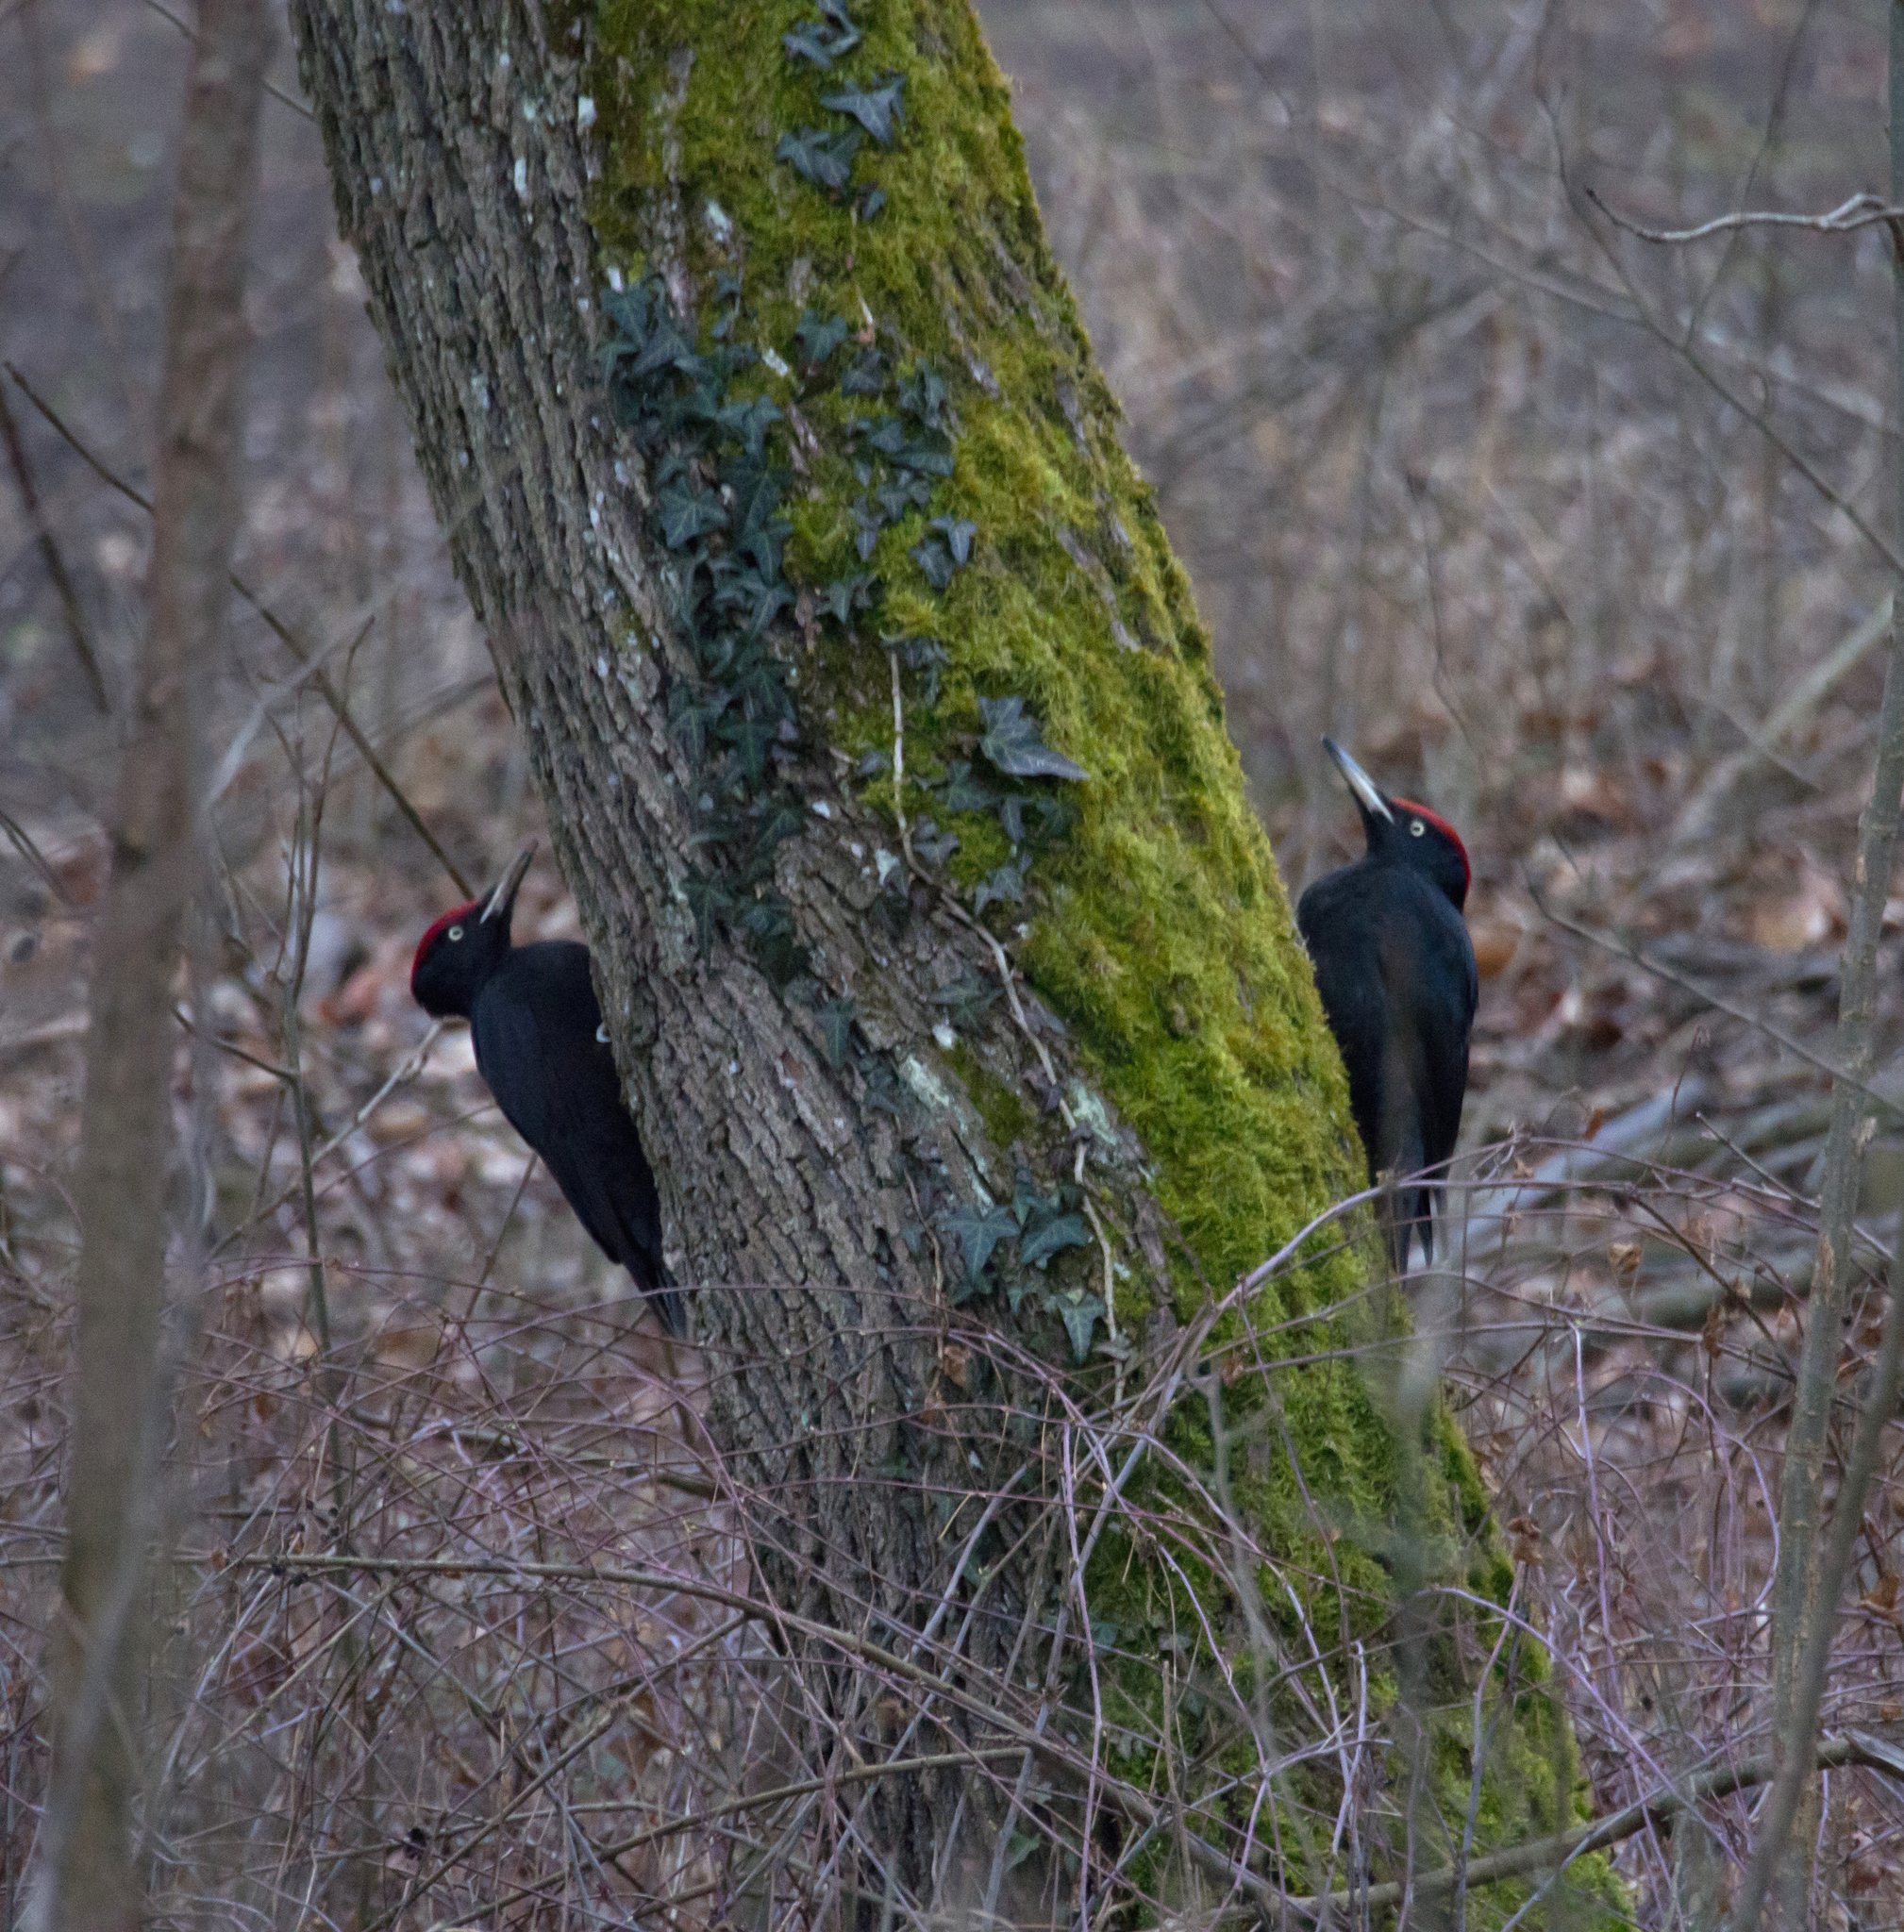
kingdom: Animalia
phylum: Chordata
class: Aves
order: Piciformes
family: Picidae
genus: Dryocopus
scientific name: Dryocopus martius
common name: Black woodpecker
